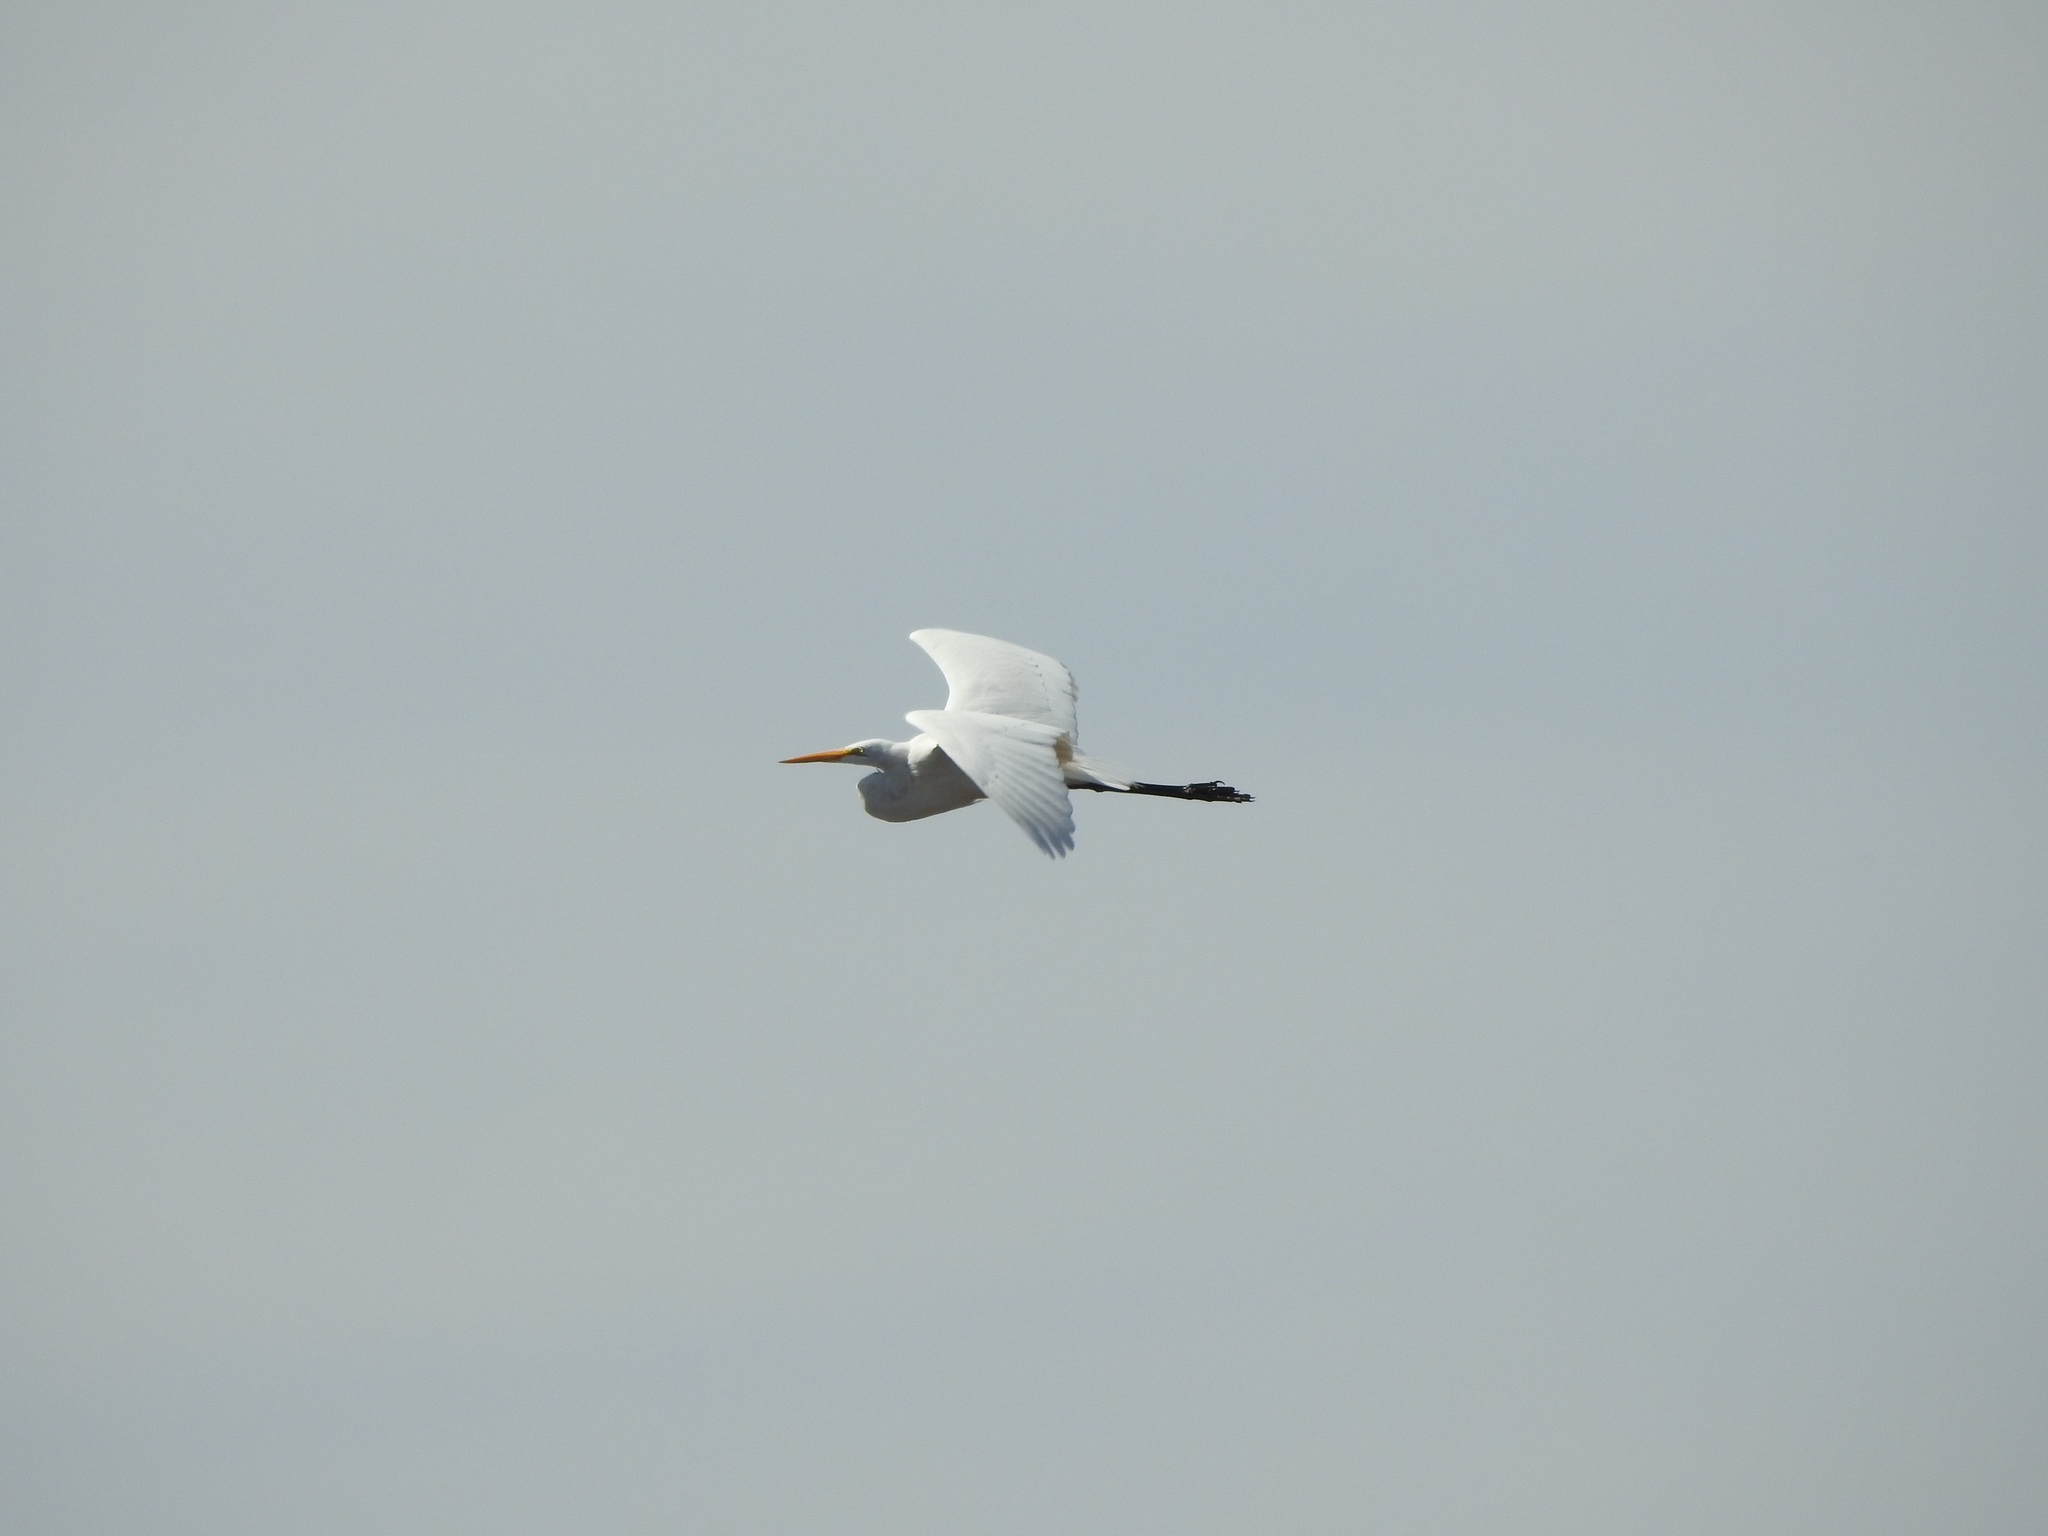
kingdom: Animalia
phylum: Chordata
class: Aves
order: Pelecaniformes
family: Ardeidae
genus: Ardea
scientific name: Ardea alba
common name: Great egret
